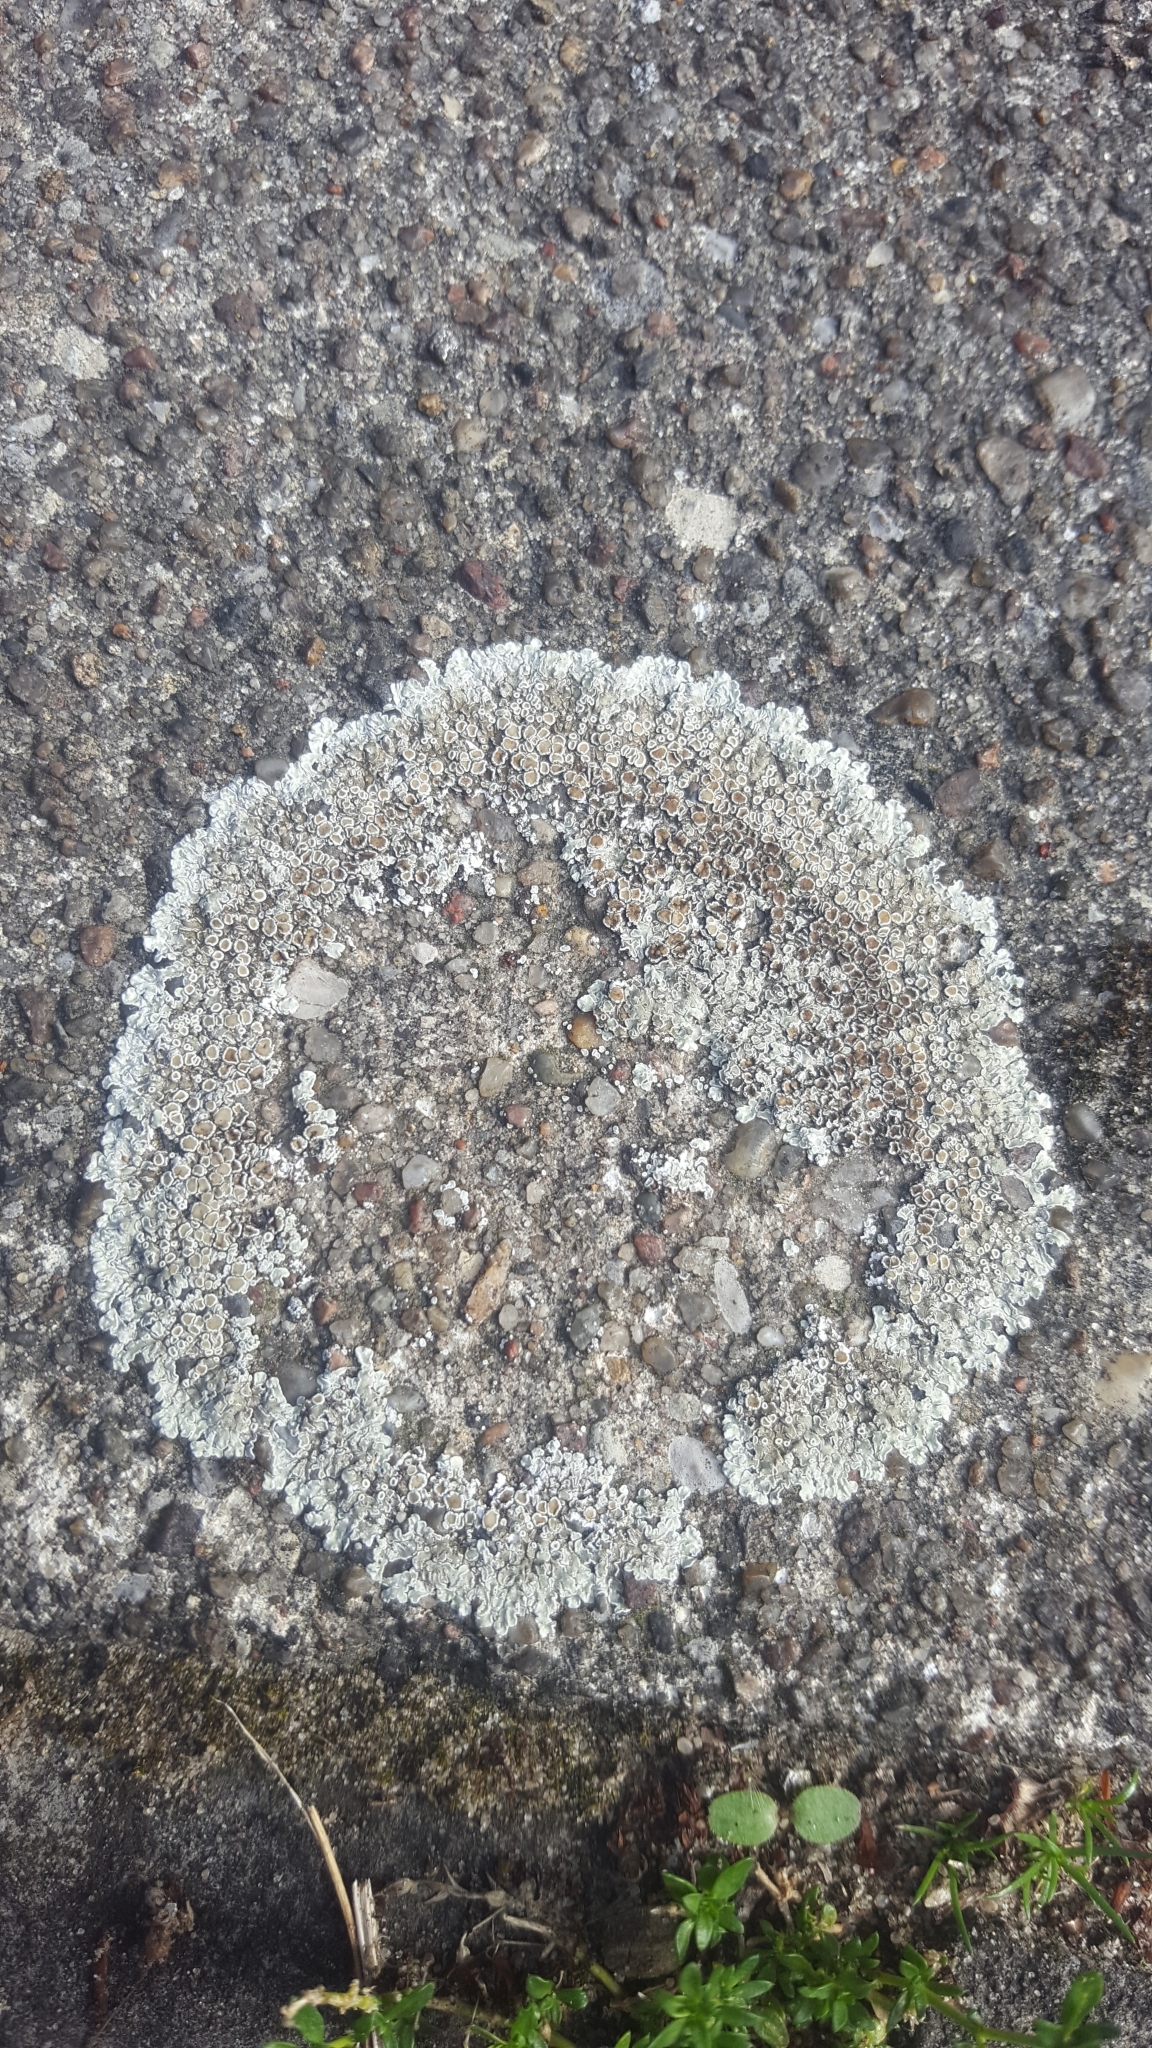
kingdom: Fungi
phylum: Ascomycota
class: Lecanoromycetes
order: Lecanorales
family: Lecanoraceae
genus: Protoparmeliopsis
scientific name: Protoparmeliopsis muralis
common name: Stonewall rim lichen
